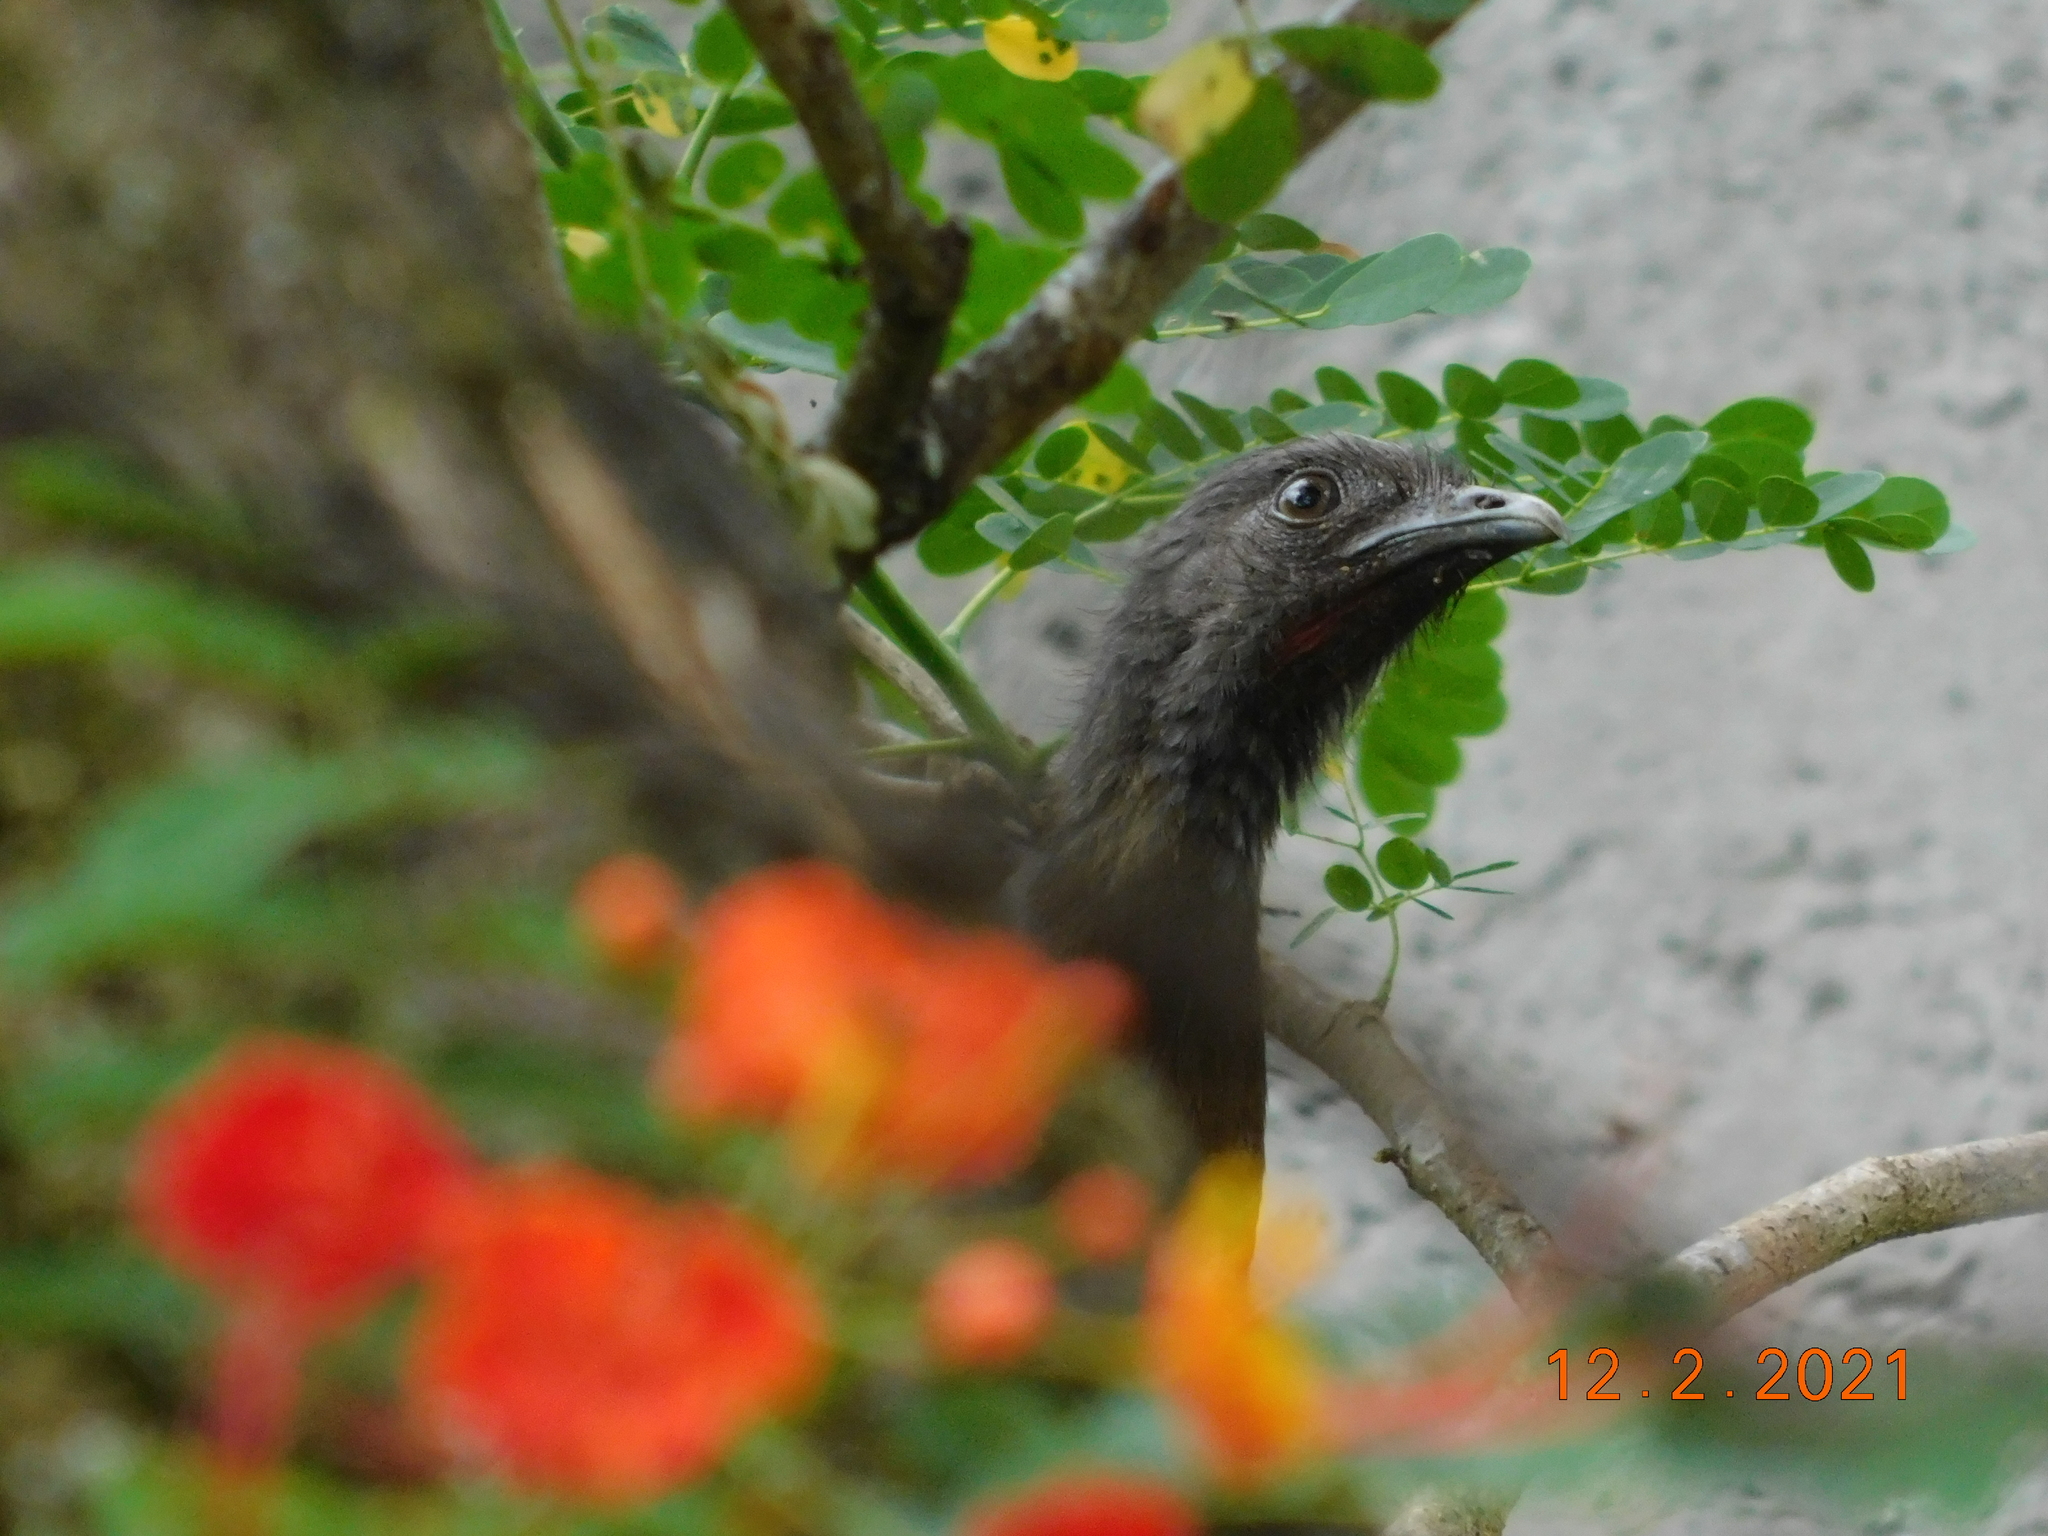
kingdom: Animalia
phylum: Chordata
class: Aves
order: Galliformes
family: Cracidae
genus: Ortalis
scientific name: Ortalis cinereiceps
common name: Grey-headed chachalaca
